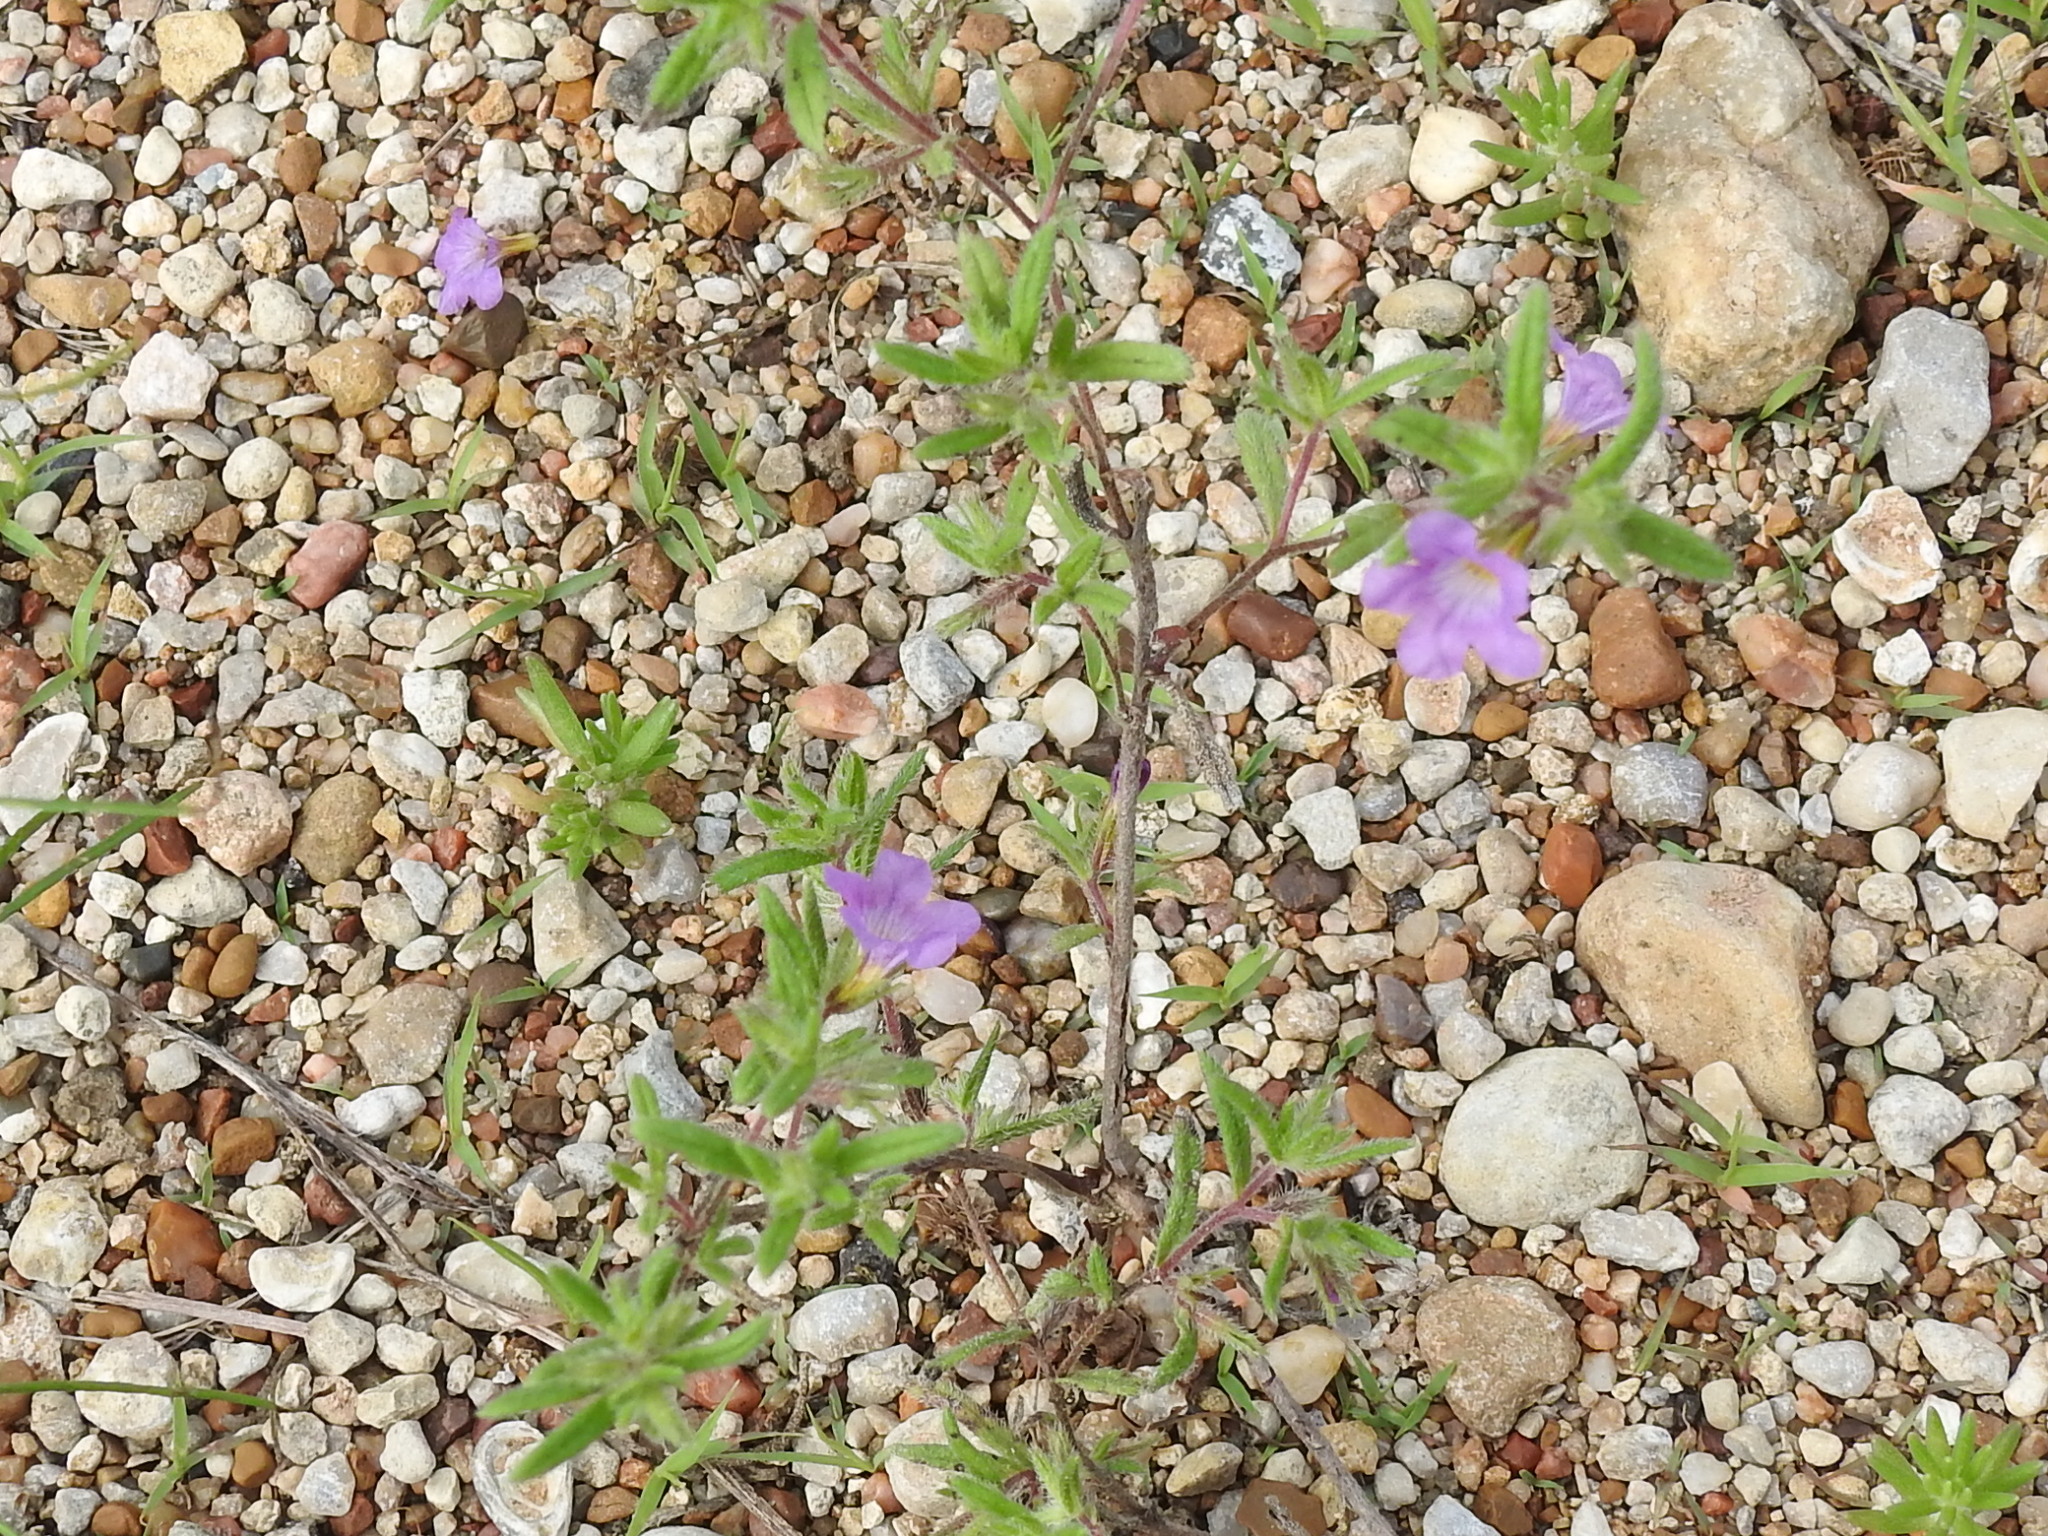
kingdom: Plantae
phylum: Tracheophyta
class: Magnoliopsida
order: Boraginales
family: Namaceae
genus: Nama
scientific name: Nama hispida
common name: Bristly nama
